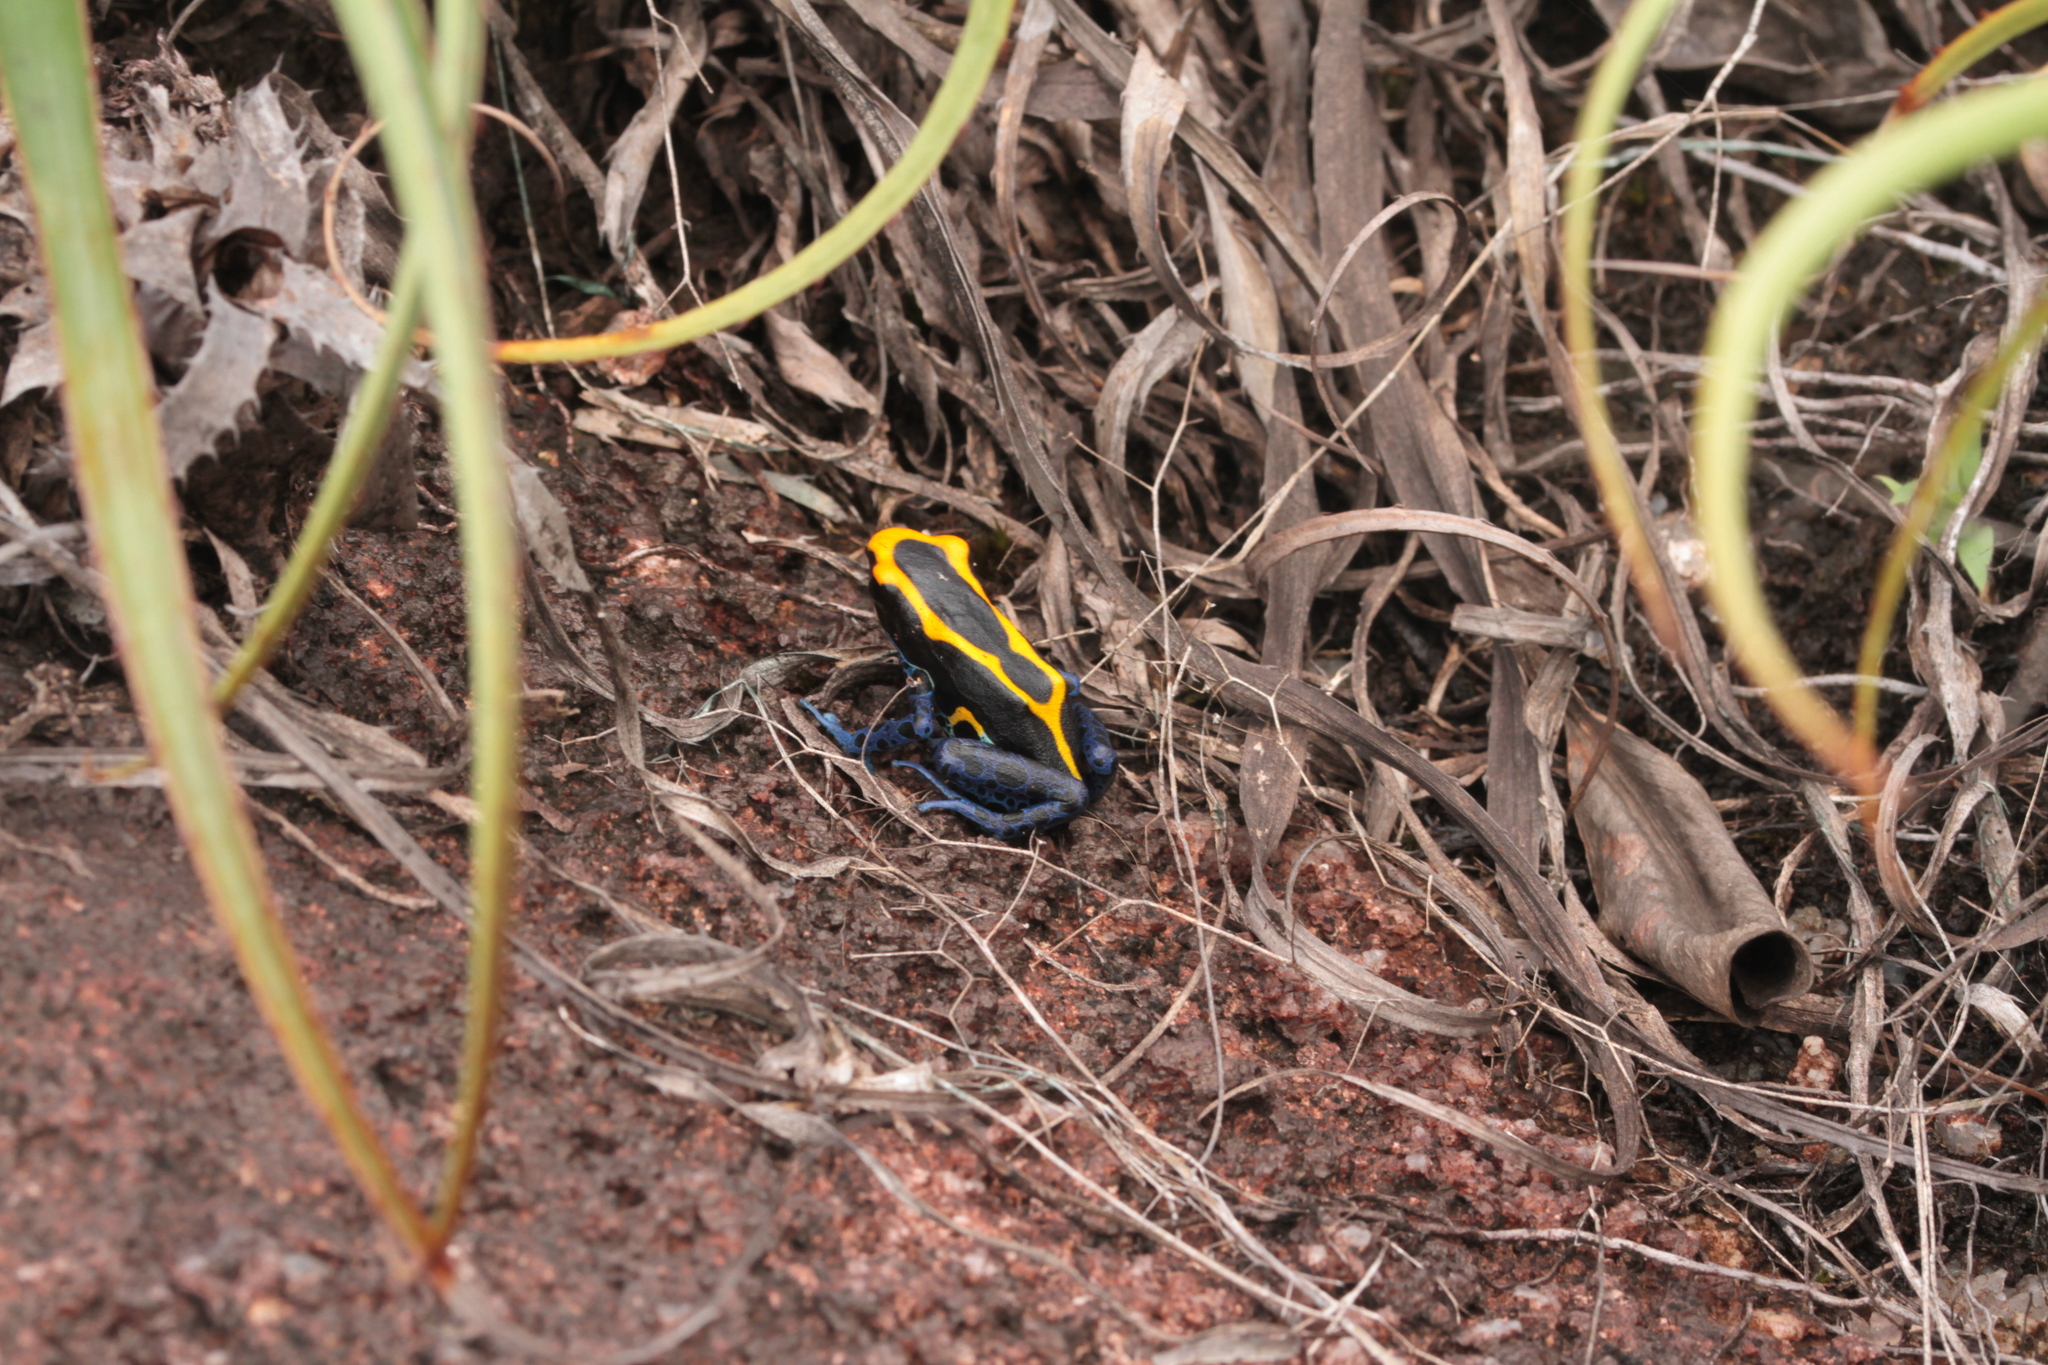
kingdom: Animalia
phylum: Chordata
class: Amphibia
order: Anura
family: Dendrobatidae
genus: Dendrobates
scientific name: Dendrobates tinctorius
